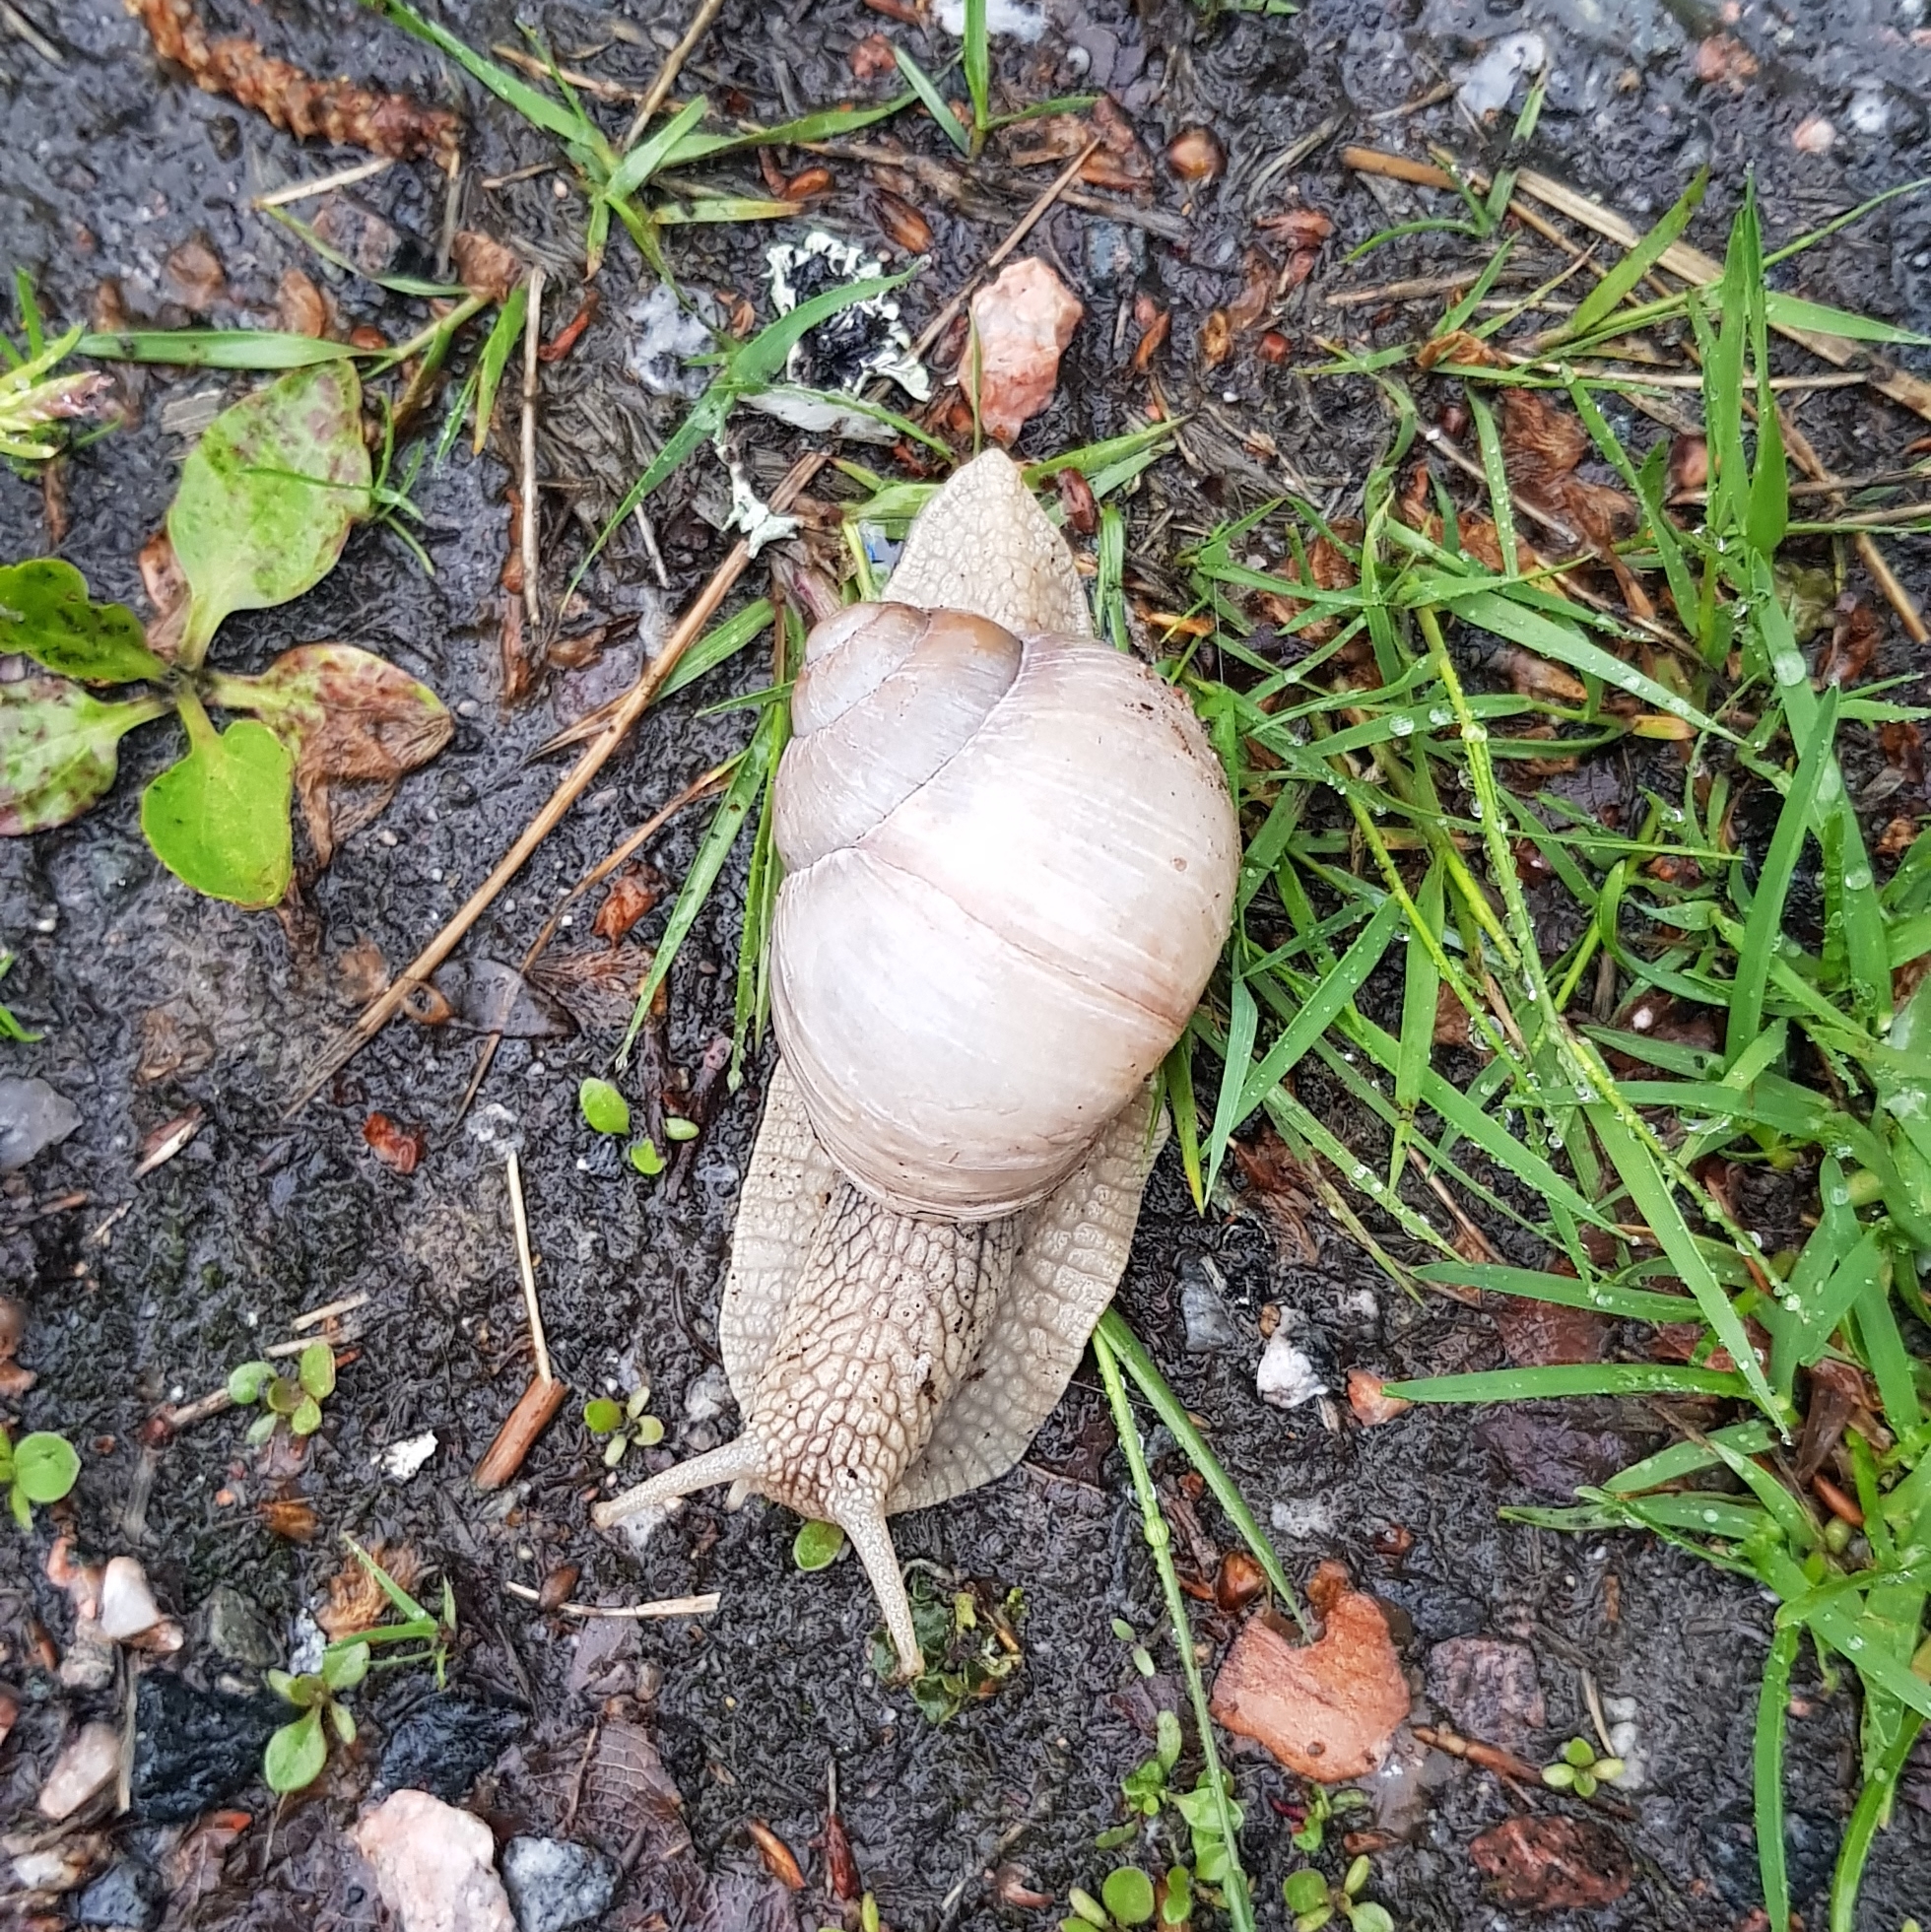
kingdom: Animalia
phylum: Mollusca
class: Gastropoda
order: Stylommatophora
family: Helicidae
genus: Helix
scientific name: Helix pomatia
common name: Roman snail
